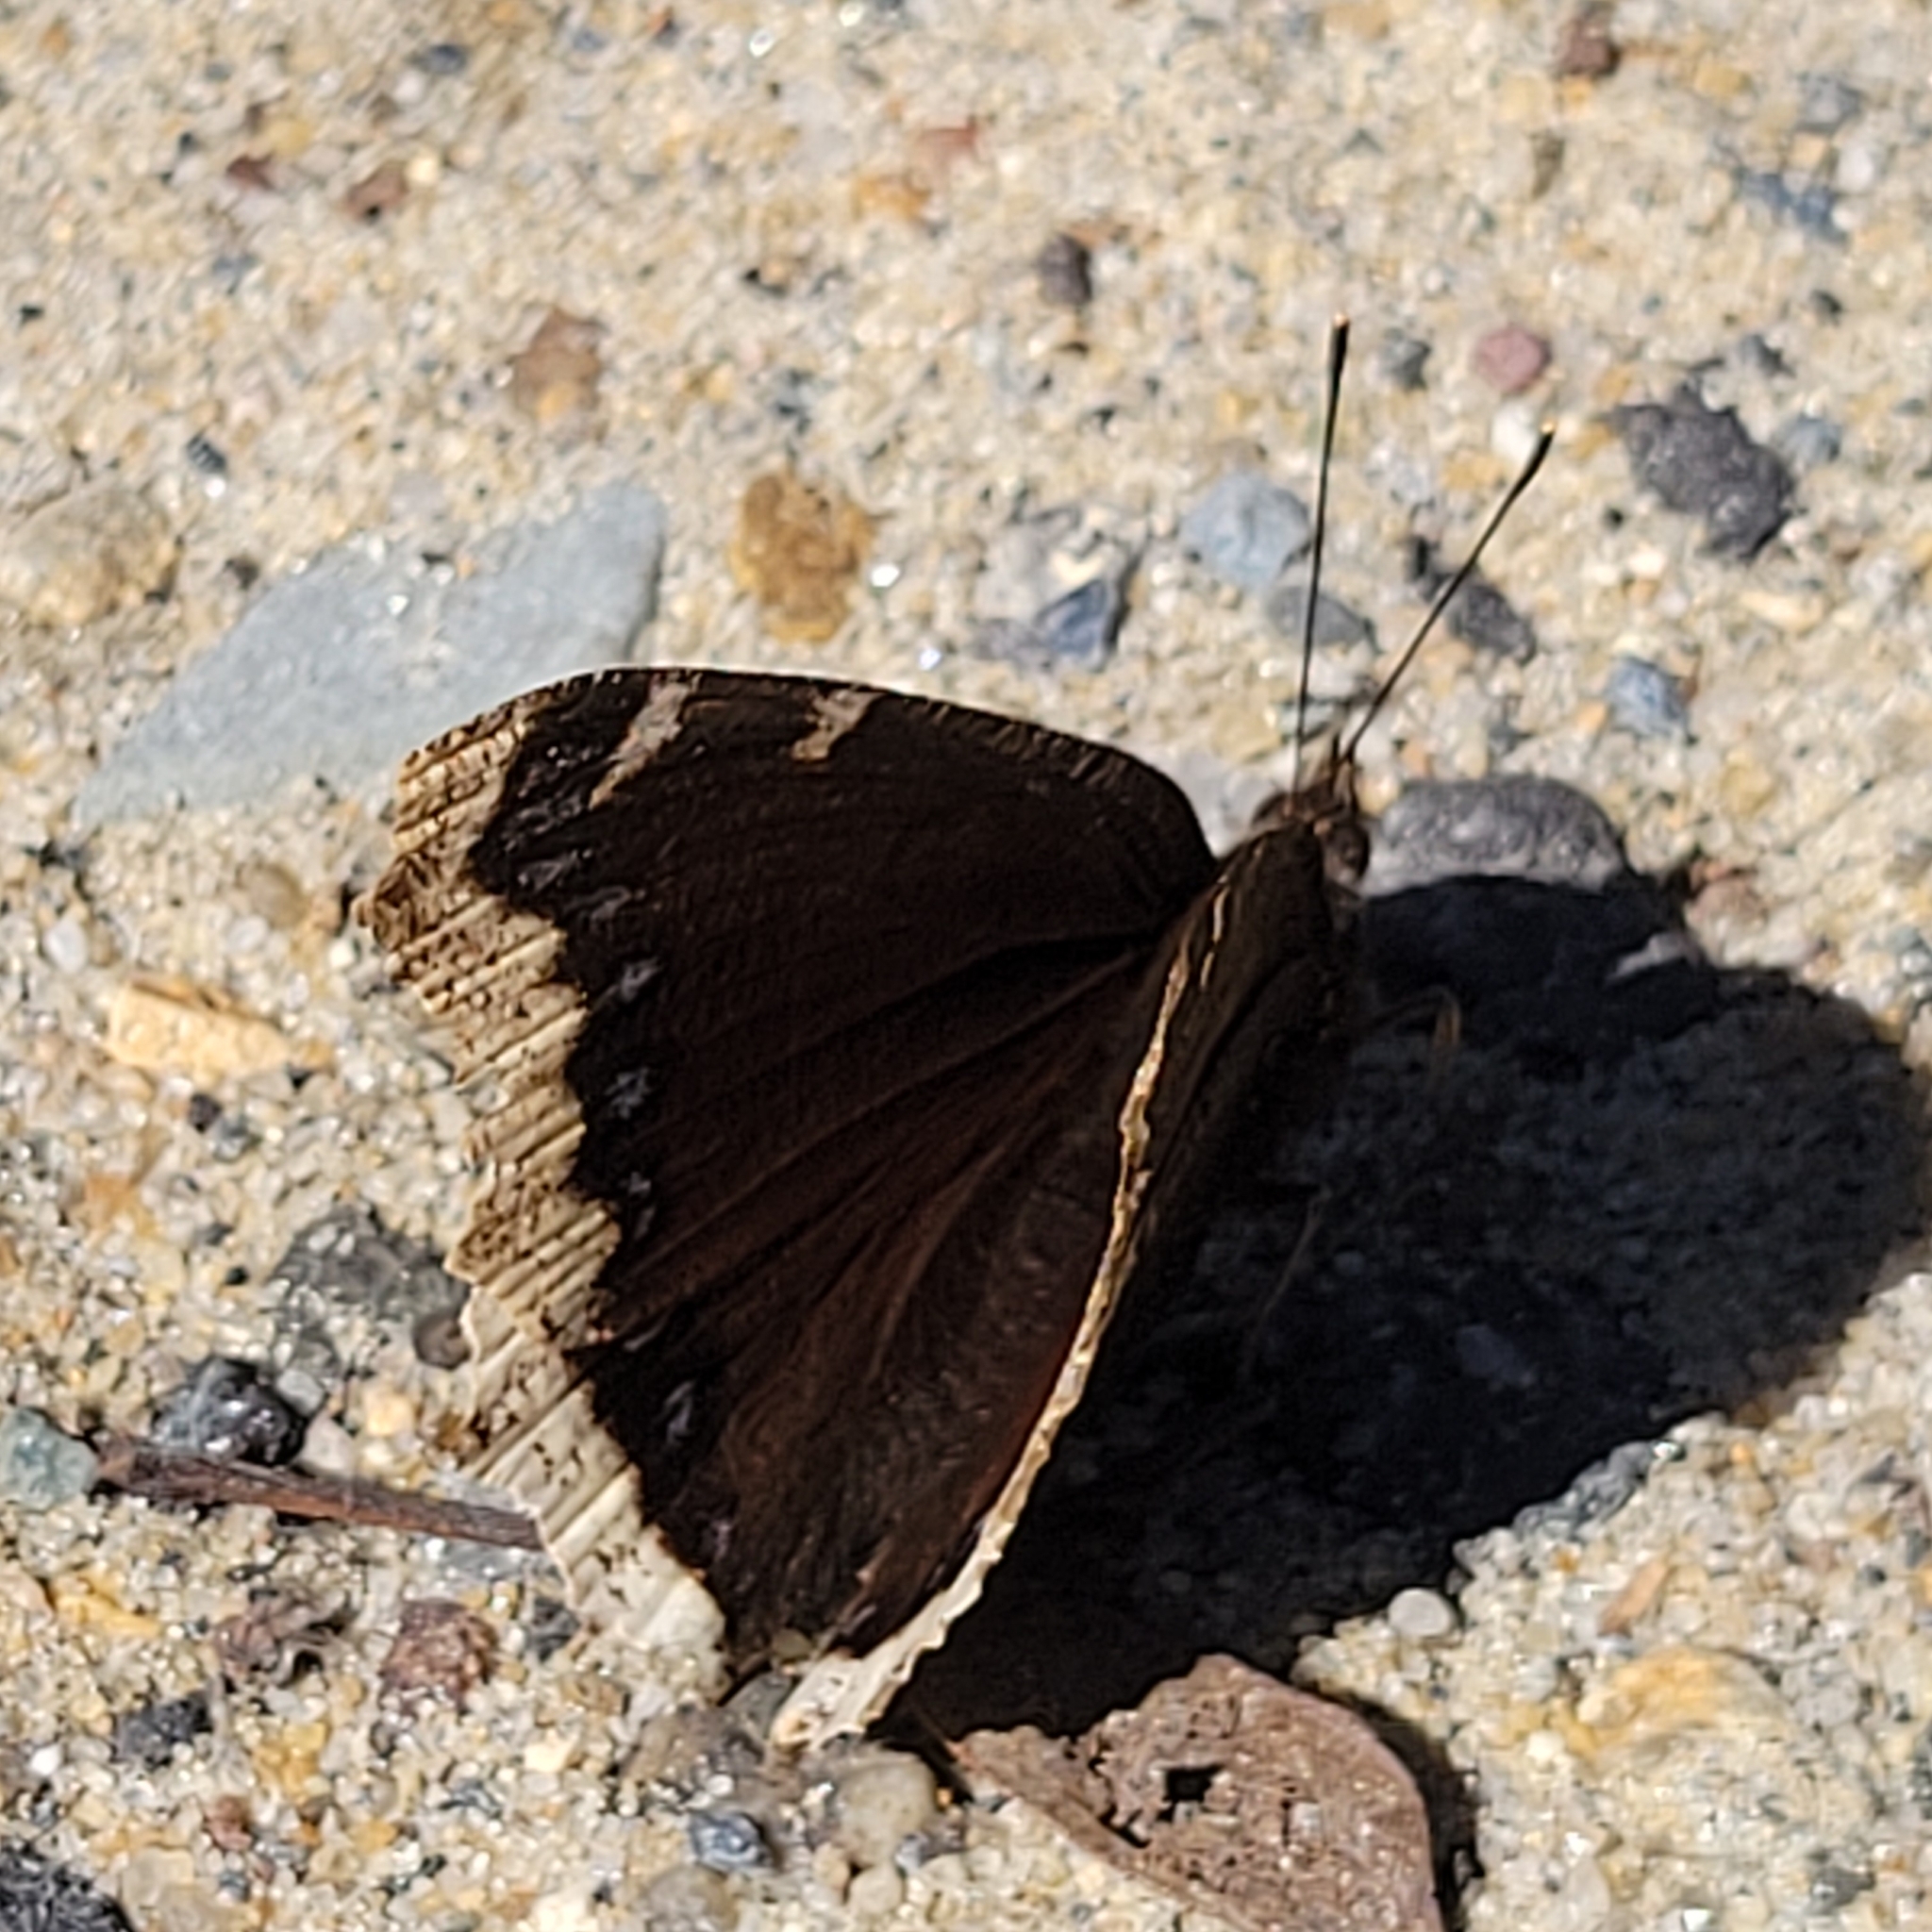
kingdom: Animalia
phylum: Arthropoda
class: Insecta
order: Lepidoptera
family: Nymphalidae
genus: Nymphalis
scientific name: Nymphalis antiopa
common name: Camberwell beauty
